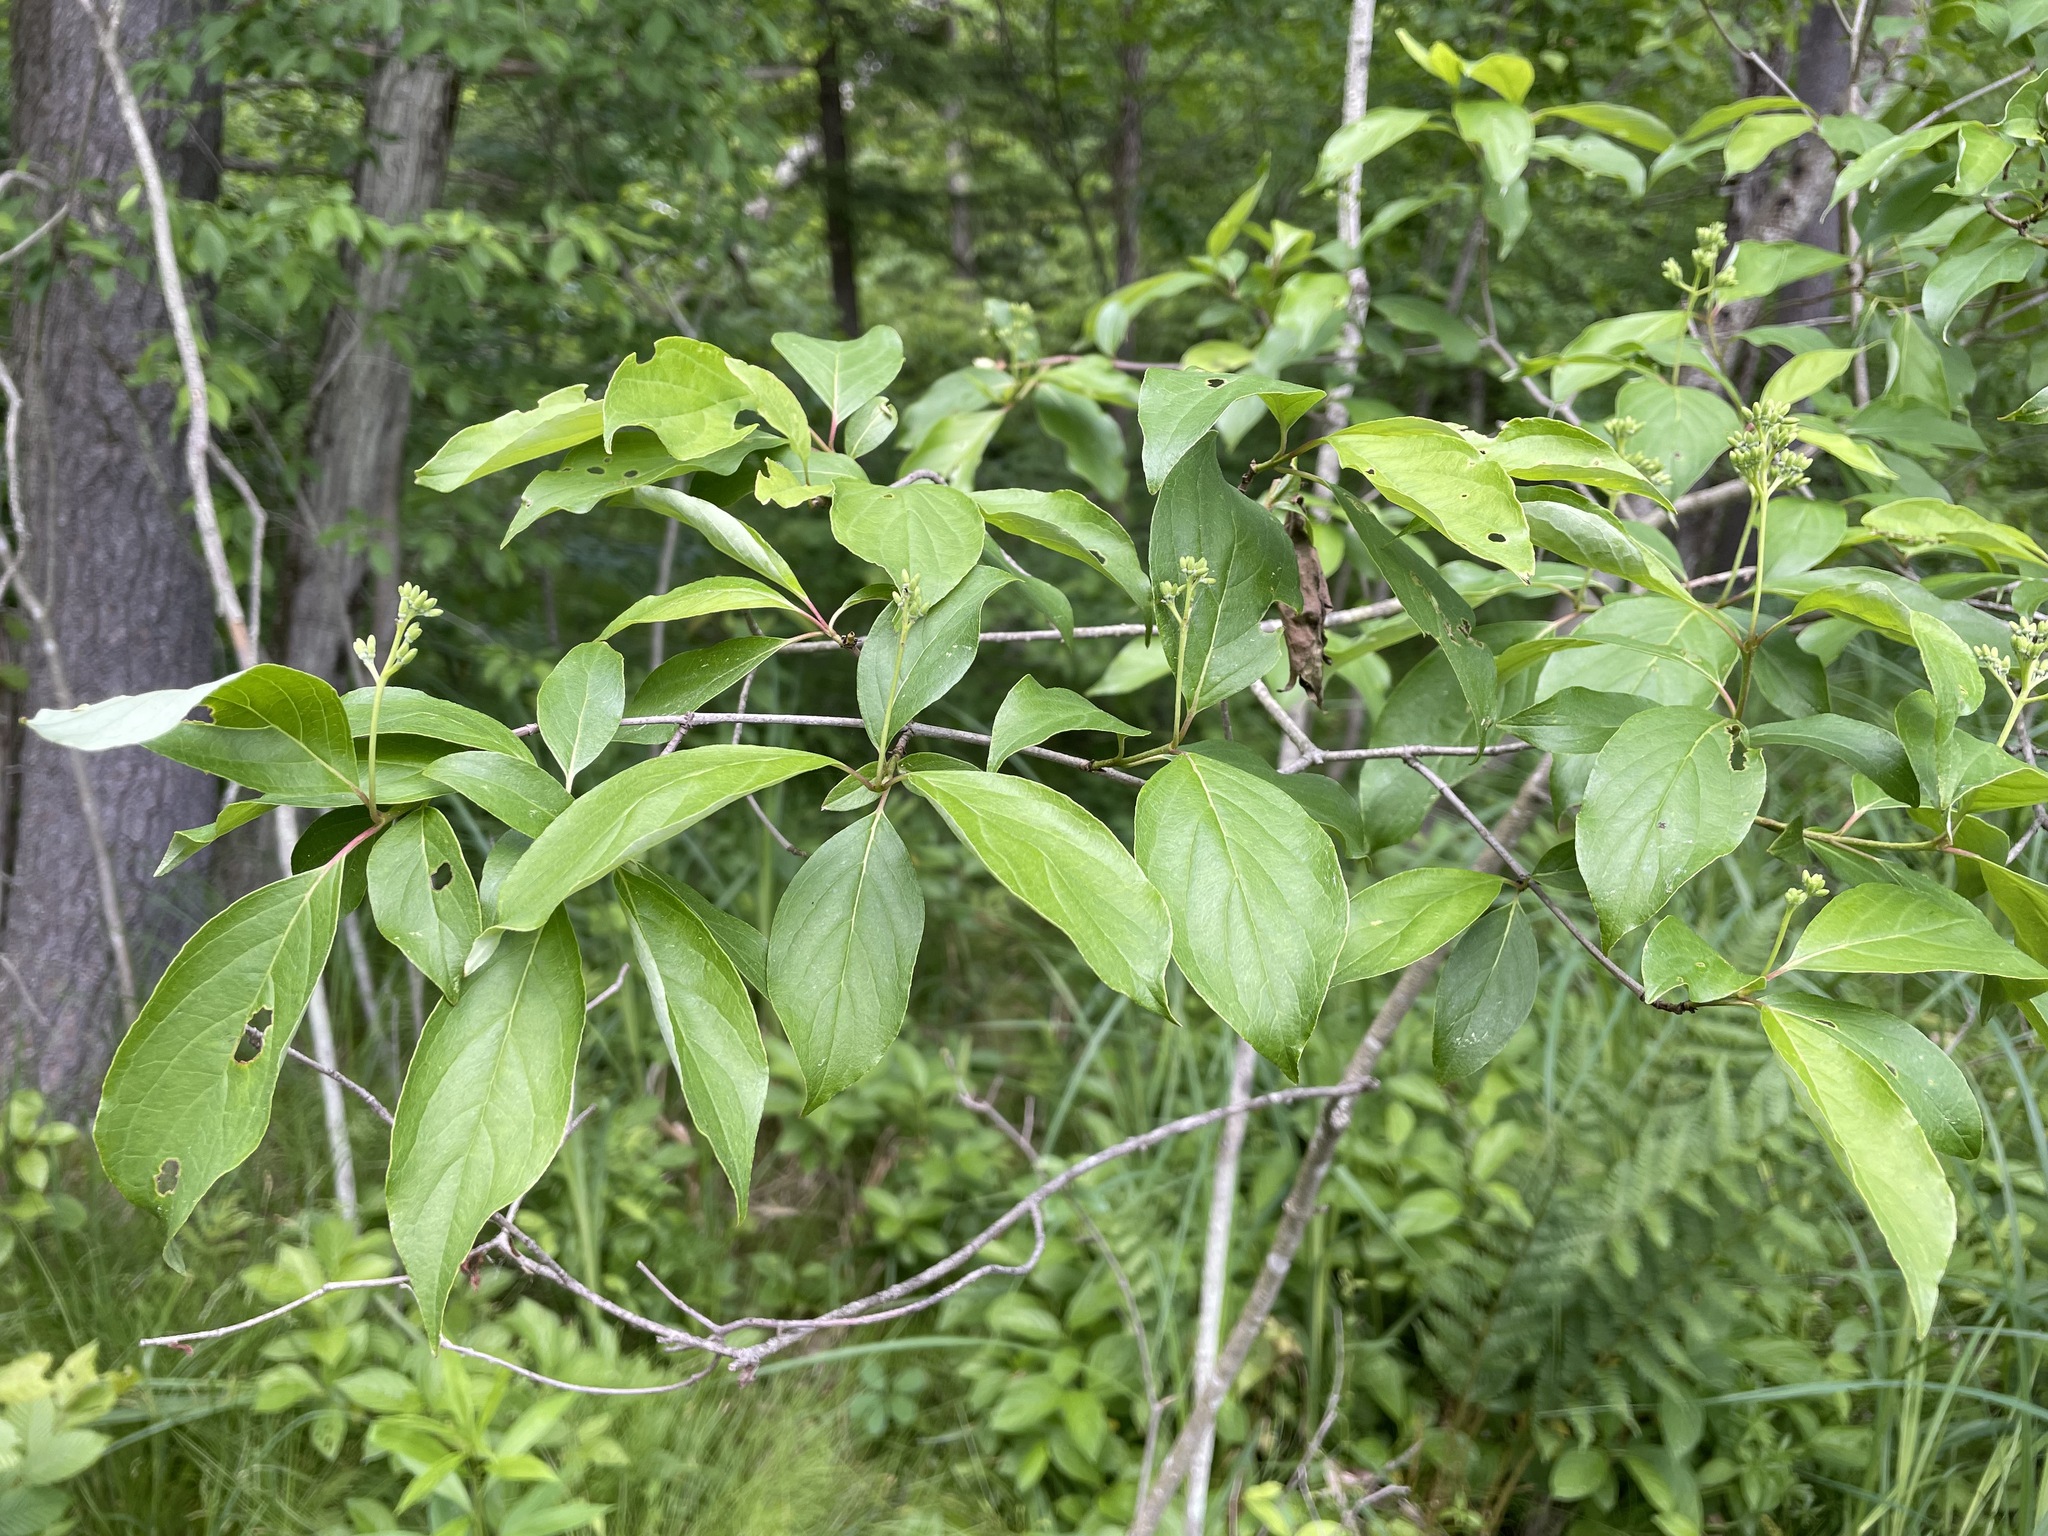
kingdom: Plantae
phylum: Tracheophyta
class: Magnoliopsida
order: Cornales
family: Cornaceae
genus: Cornus
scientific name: Cornus racemosa
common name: Panicled dogwood
